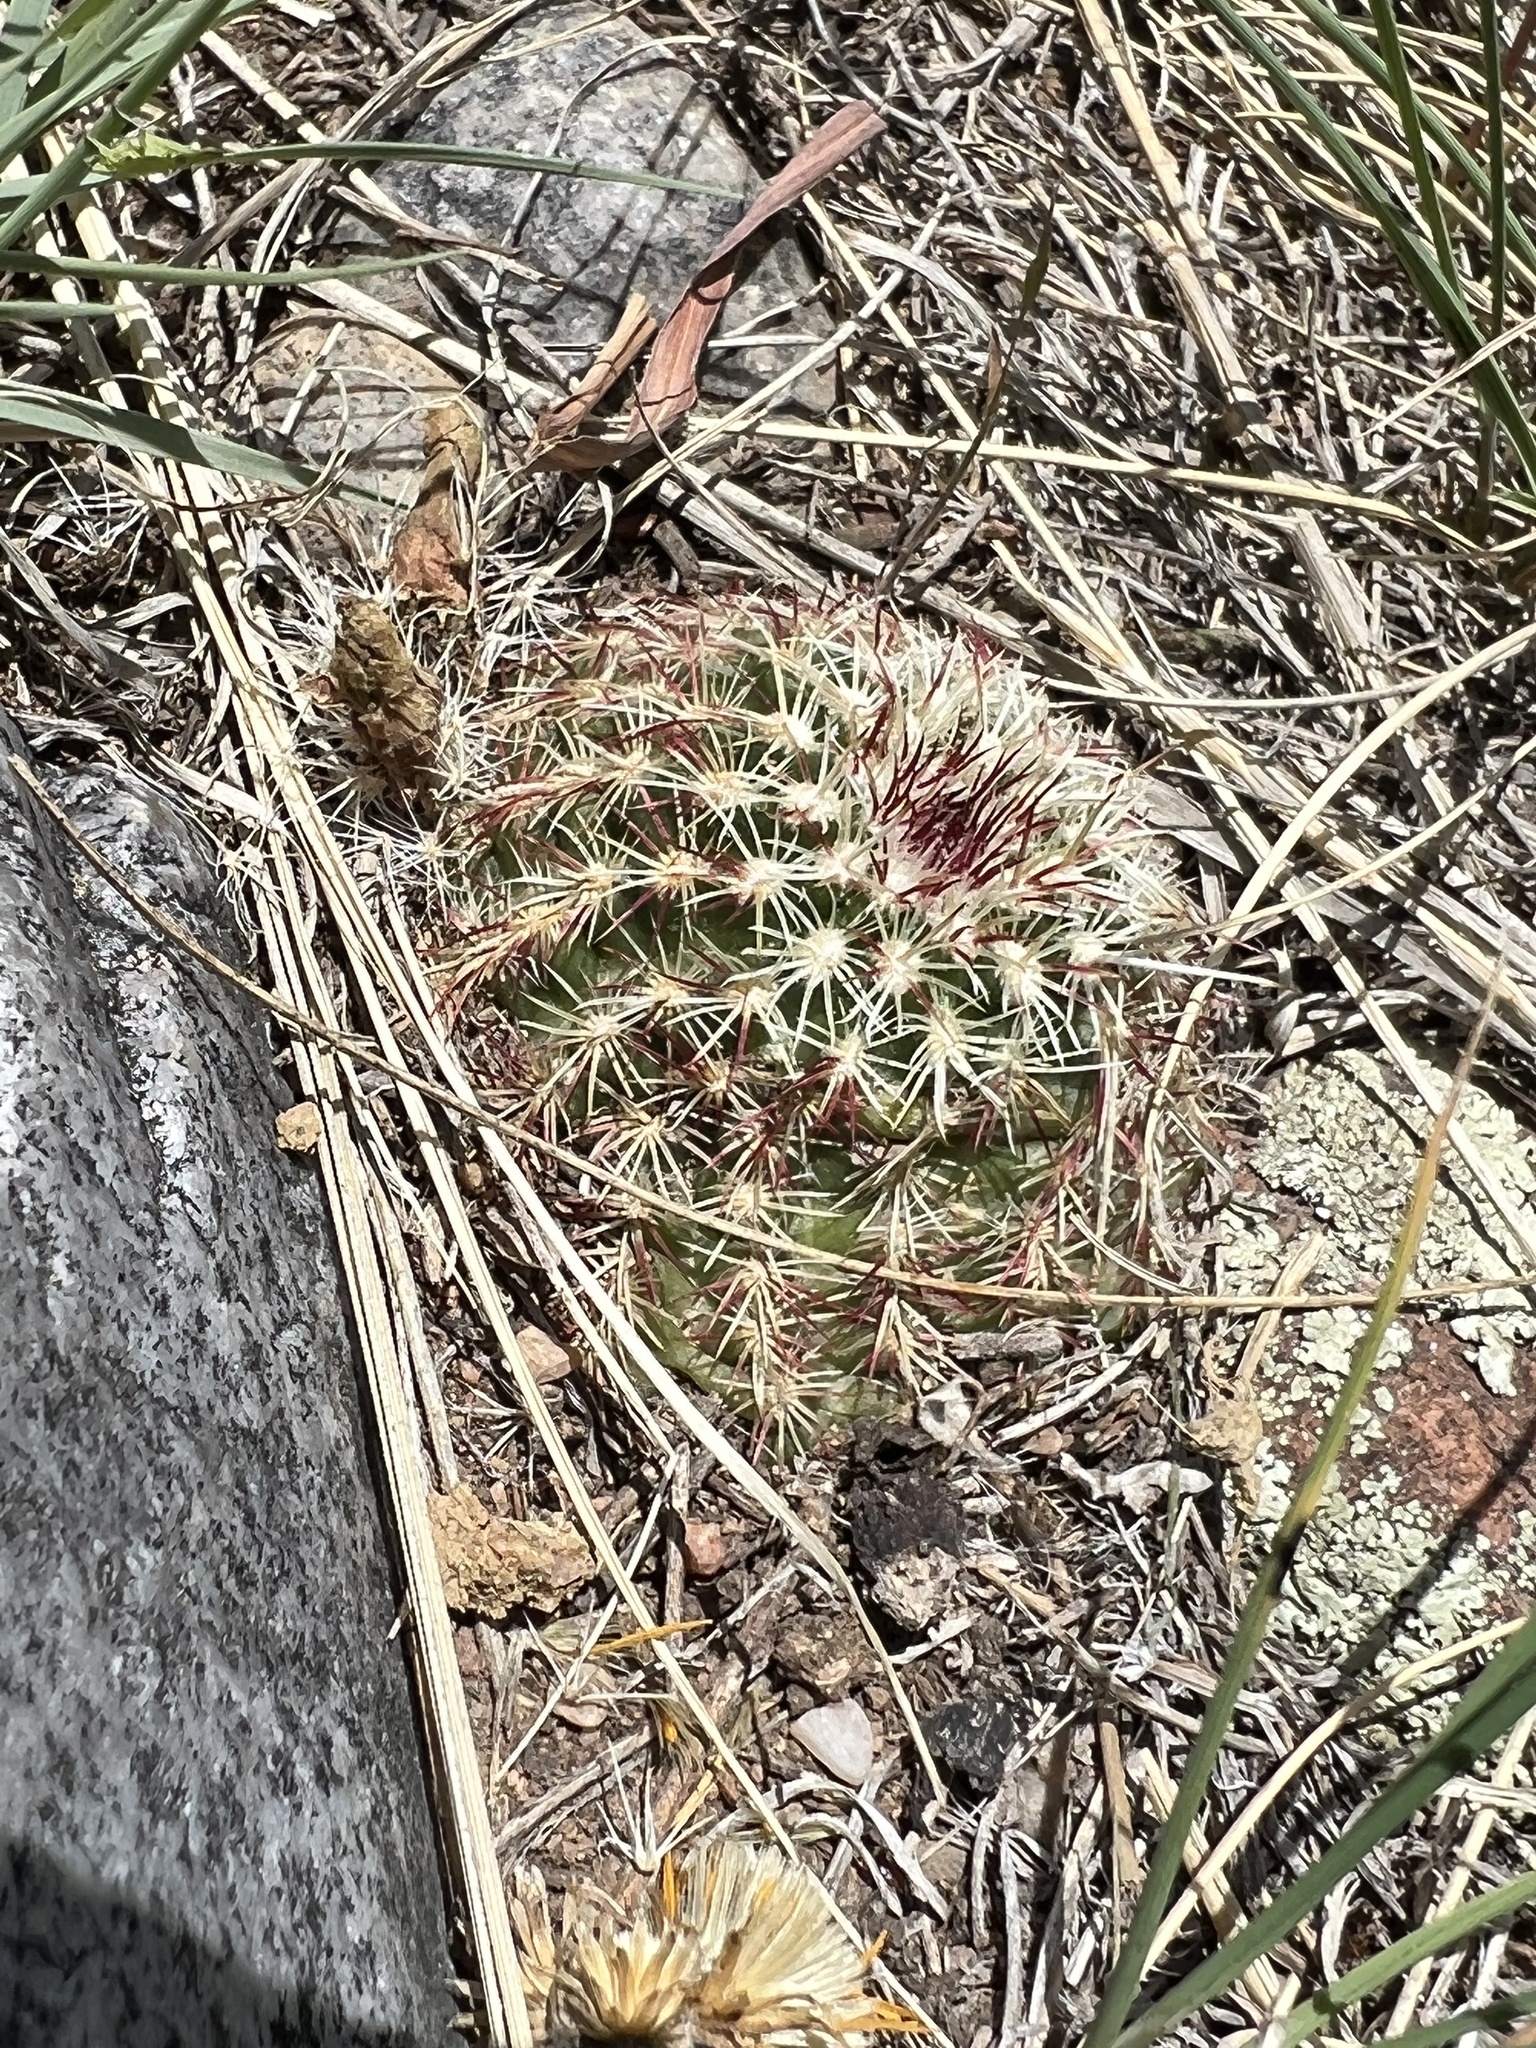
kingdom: Plantae
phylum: Tracheophyta
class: Magnoliopsida
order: Caryophyllales
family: Cactaceae
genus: Echinocereus
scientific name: Echinocereus viridiflorus
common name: Nylon hedgehog cactus
